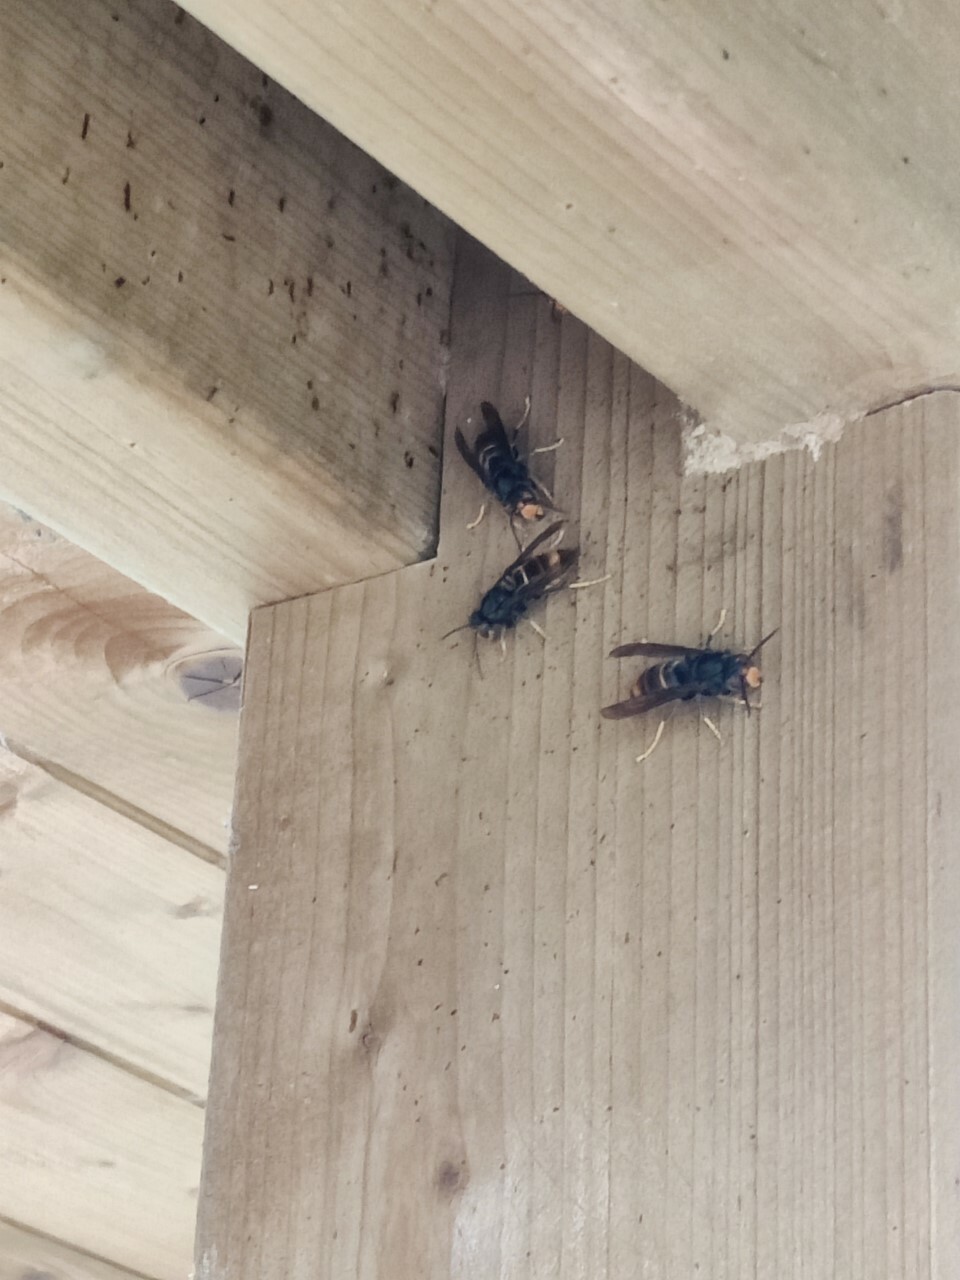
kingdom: Animalia
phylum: Arthropoda
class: Insecta
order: Hymenoptera
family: Vespidae
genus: Vespa
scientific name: Vespa velutina
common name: Asian hornet
